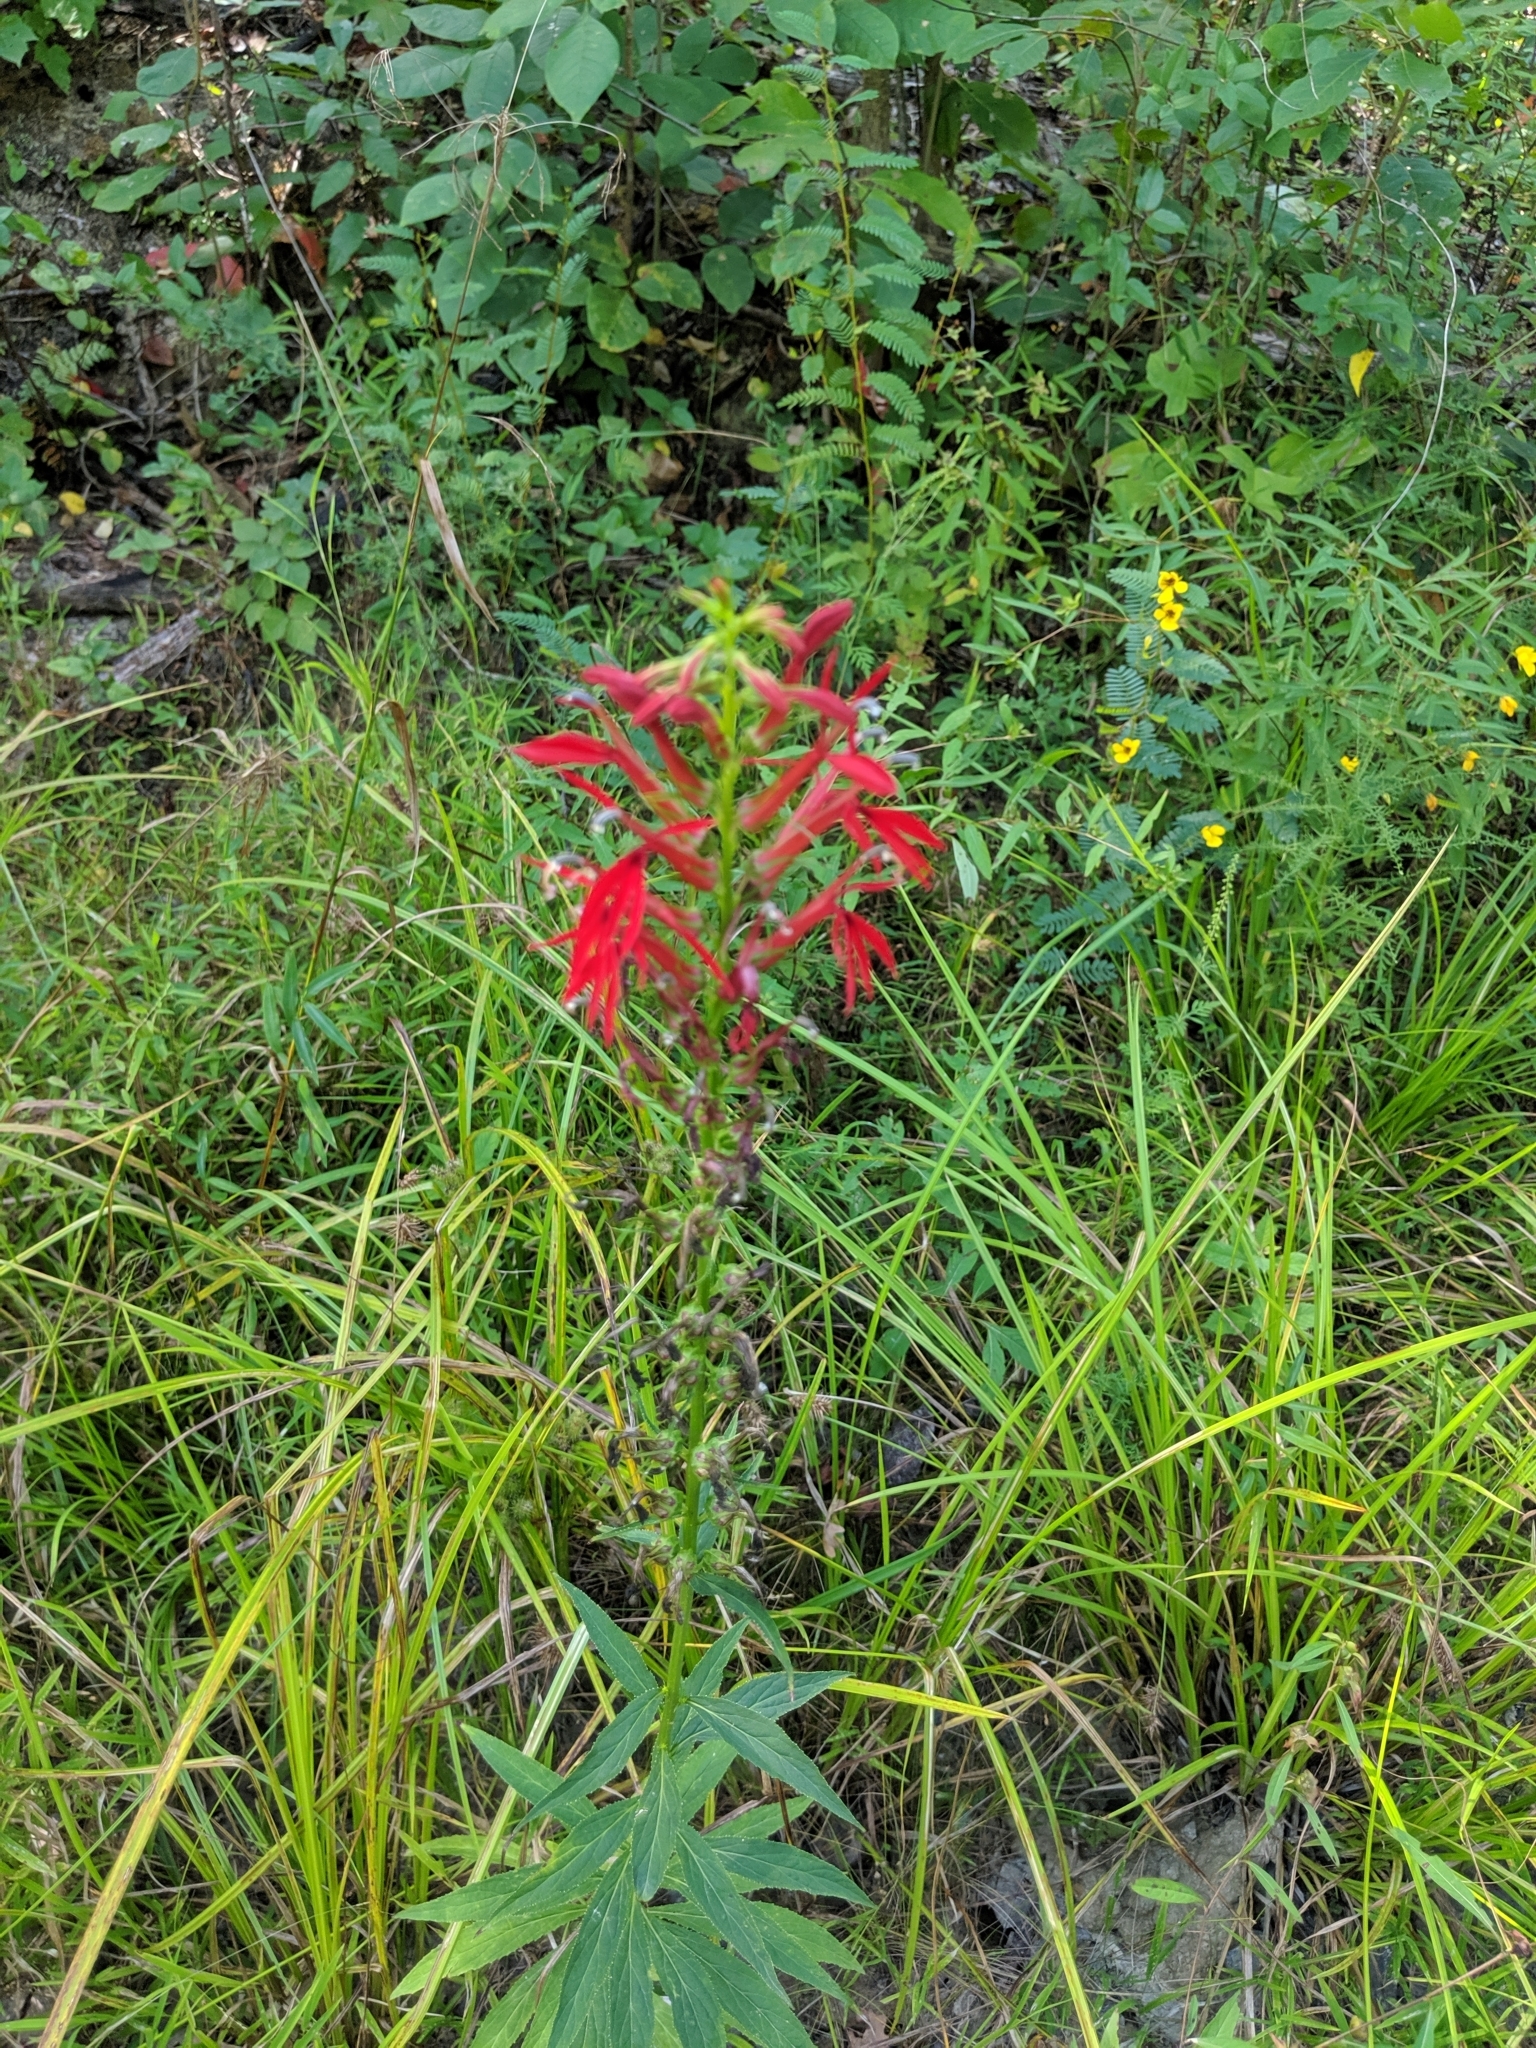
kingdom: Plantae
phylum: Tracheophyta
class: Magnoliopsida
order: Asterales
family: Campanulaceae
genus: Lobelia
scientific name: Lobelia cardinalis
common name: Cardinal flower
